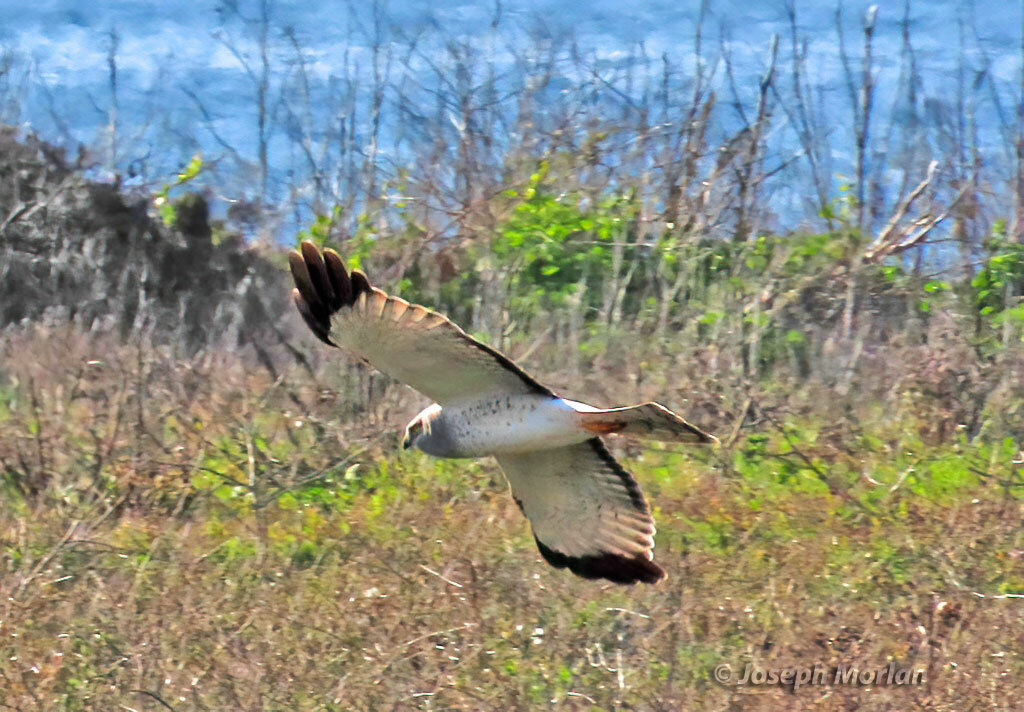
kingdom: Animalia
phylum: Chordata
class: Aves
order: Accipitriformes
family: Accipitridae
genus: Circus
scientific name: Circus cyaneus
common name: Hen harrier
